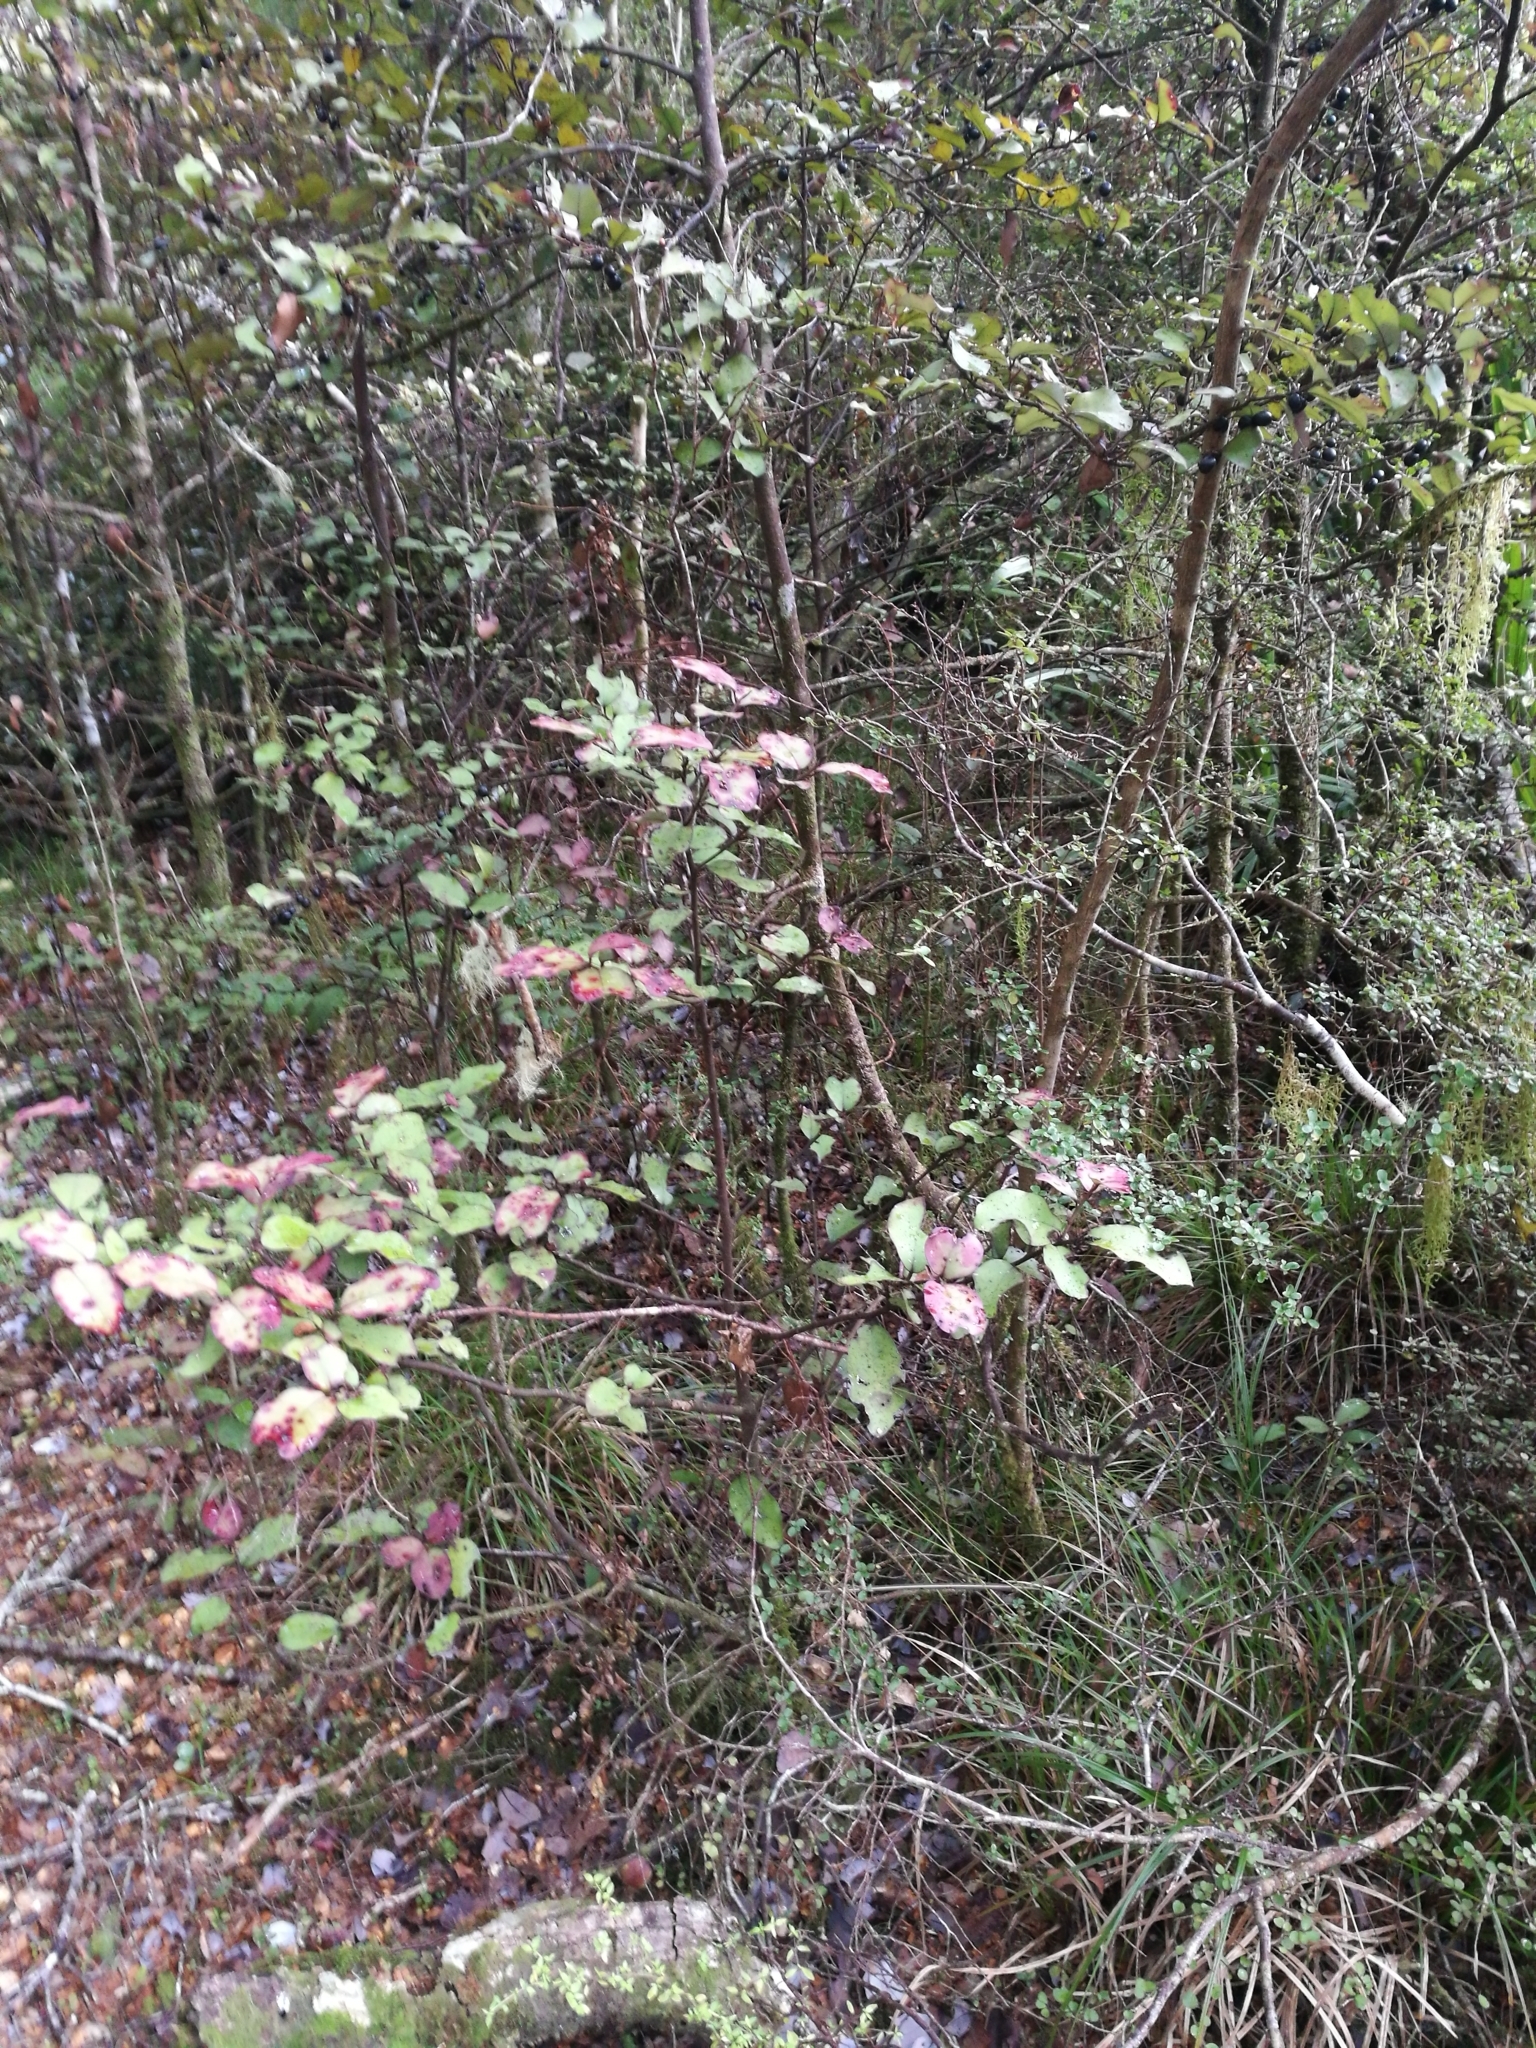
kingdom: Plantae
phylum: Tracheophyta
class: Magnoliopsida
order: Canellales
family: Winteraceae
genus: Pseudowintera
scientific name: Pseudowintera colorata
